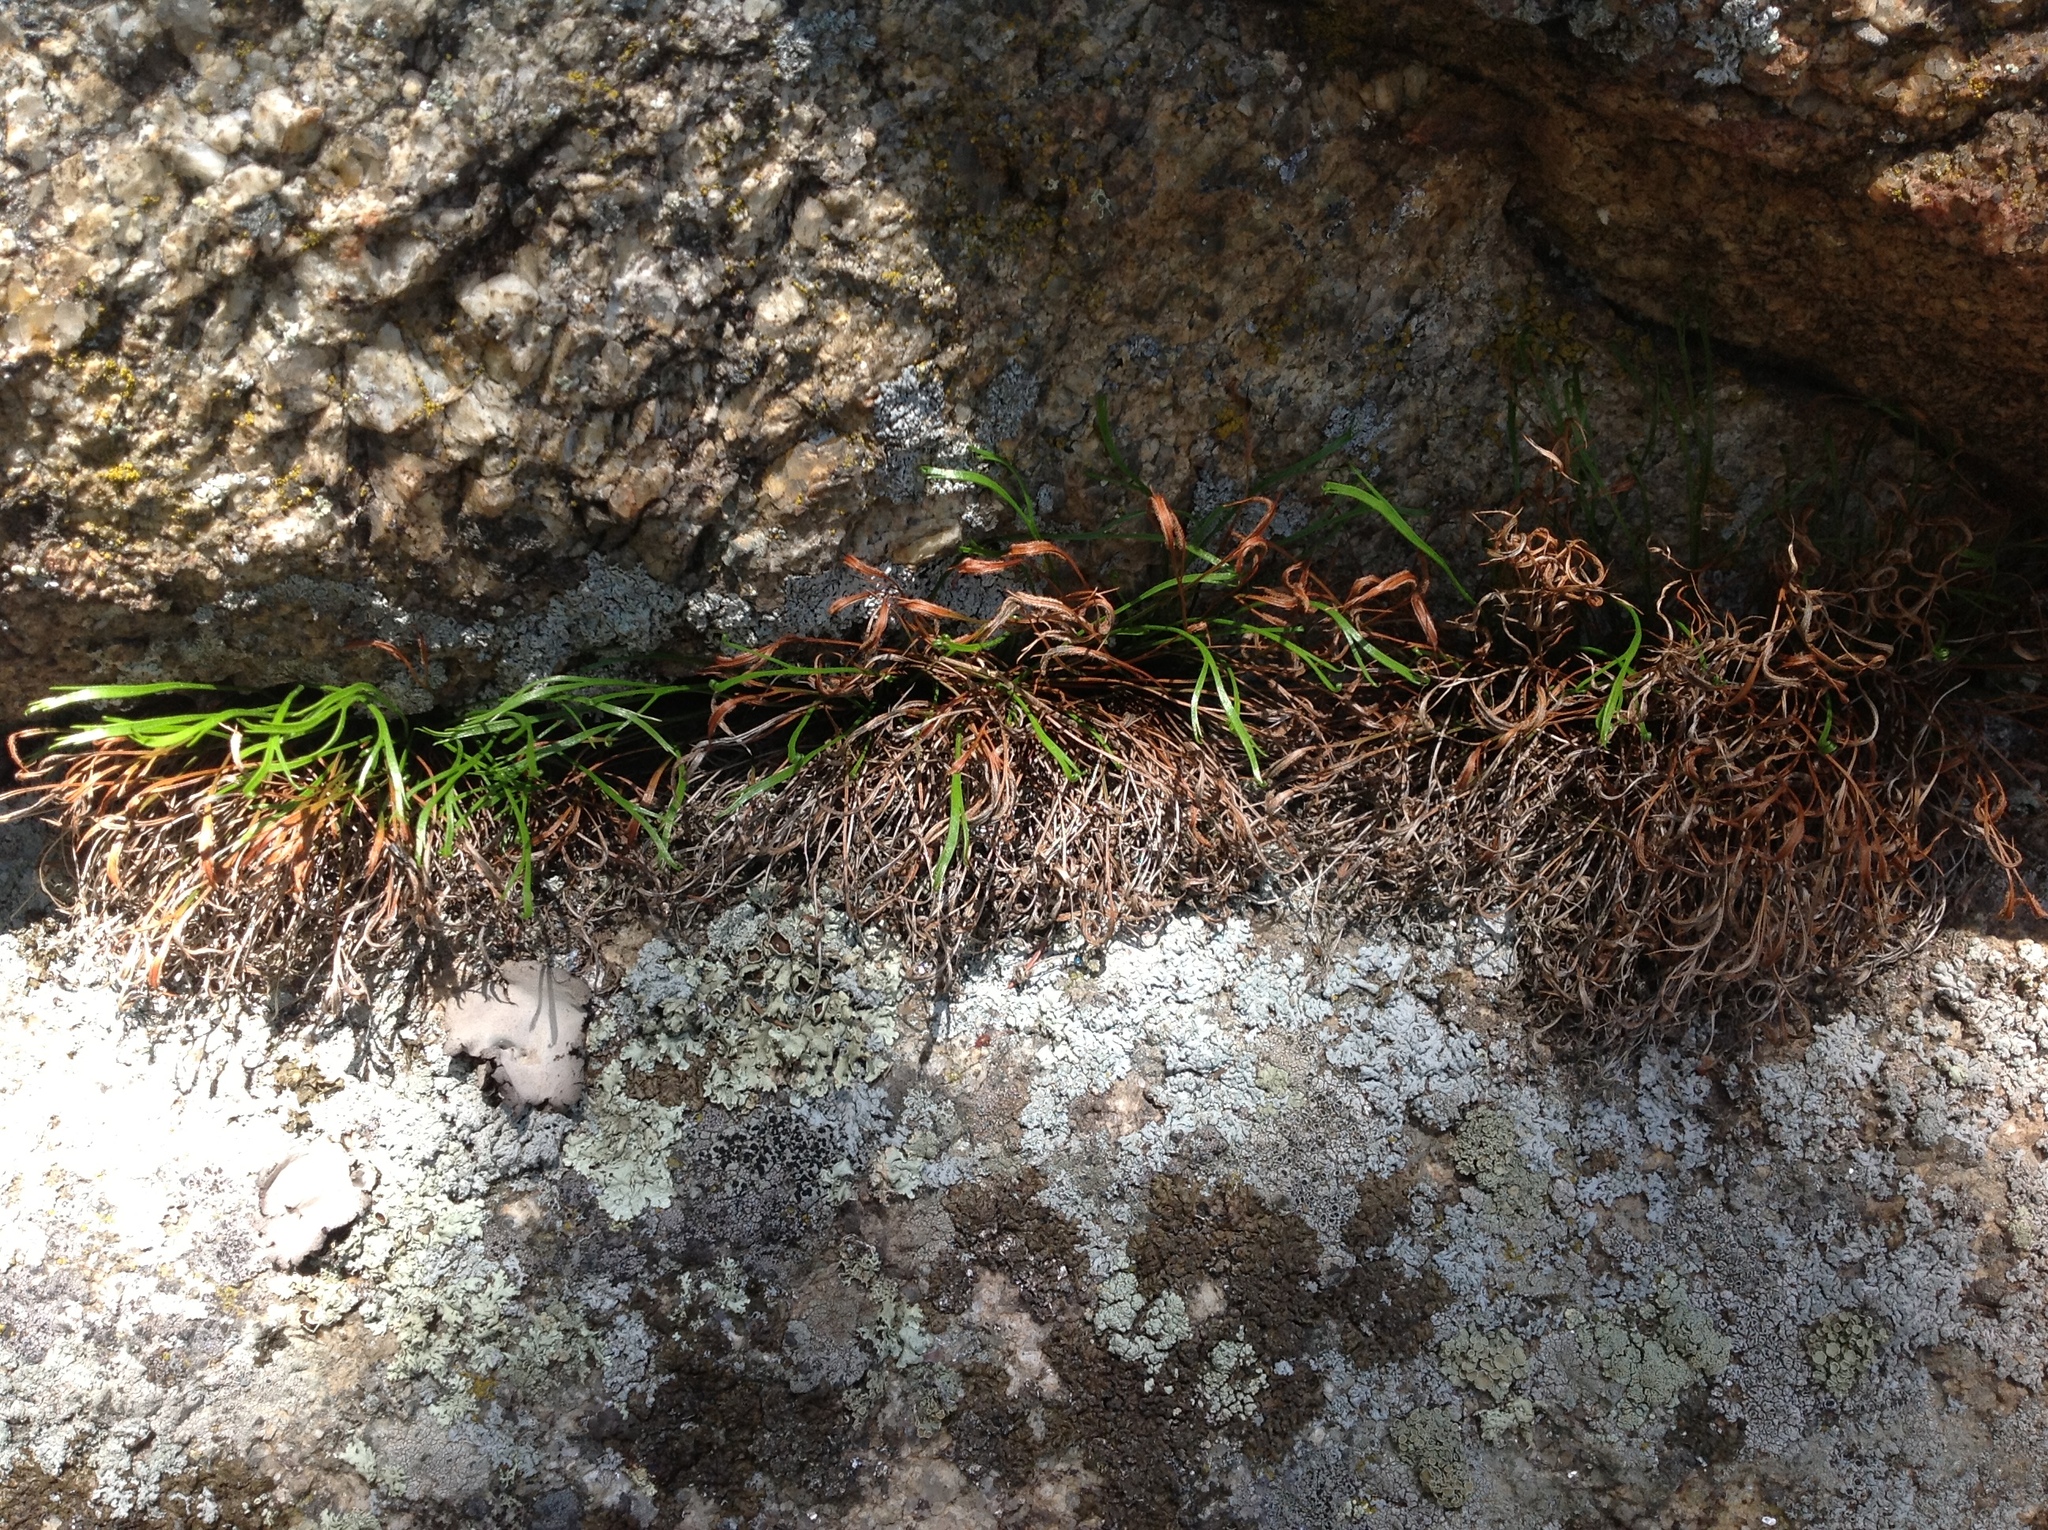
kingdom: Plantae
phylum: Tracheophyta
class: Polypodiopsida
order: Polypodiales
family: Aspleniaceae
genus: Asplenium
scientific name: Asplenium septentrionale
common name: Forked spleenwort
